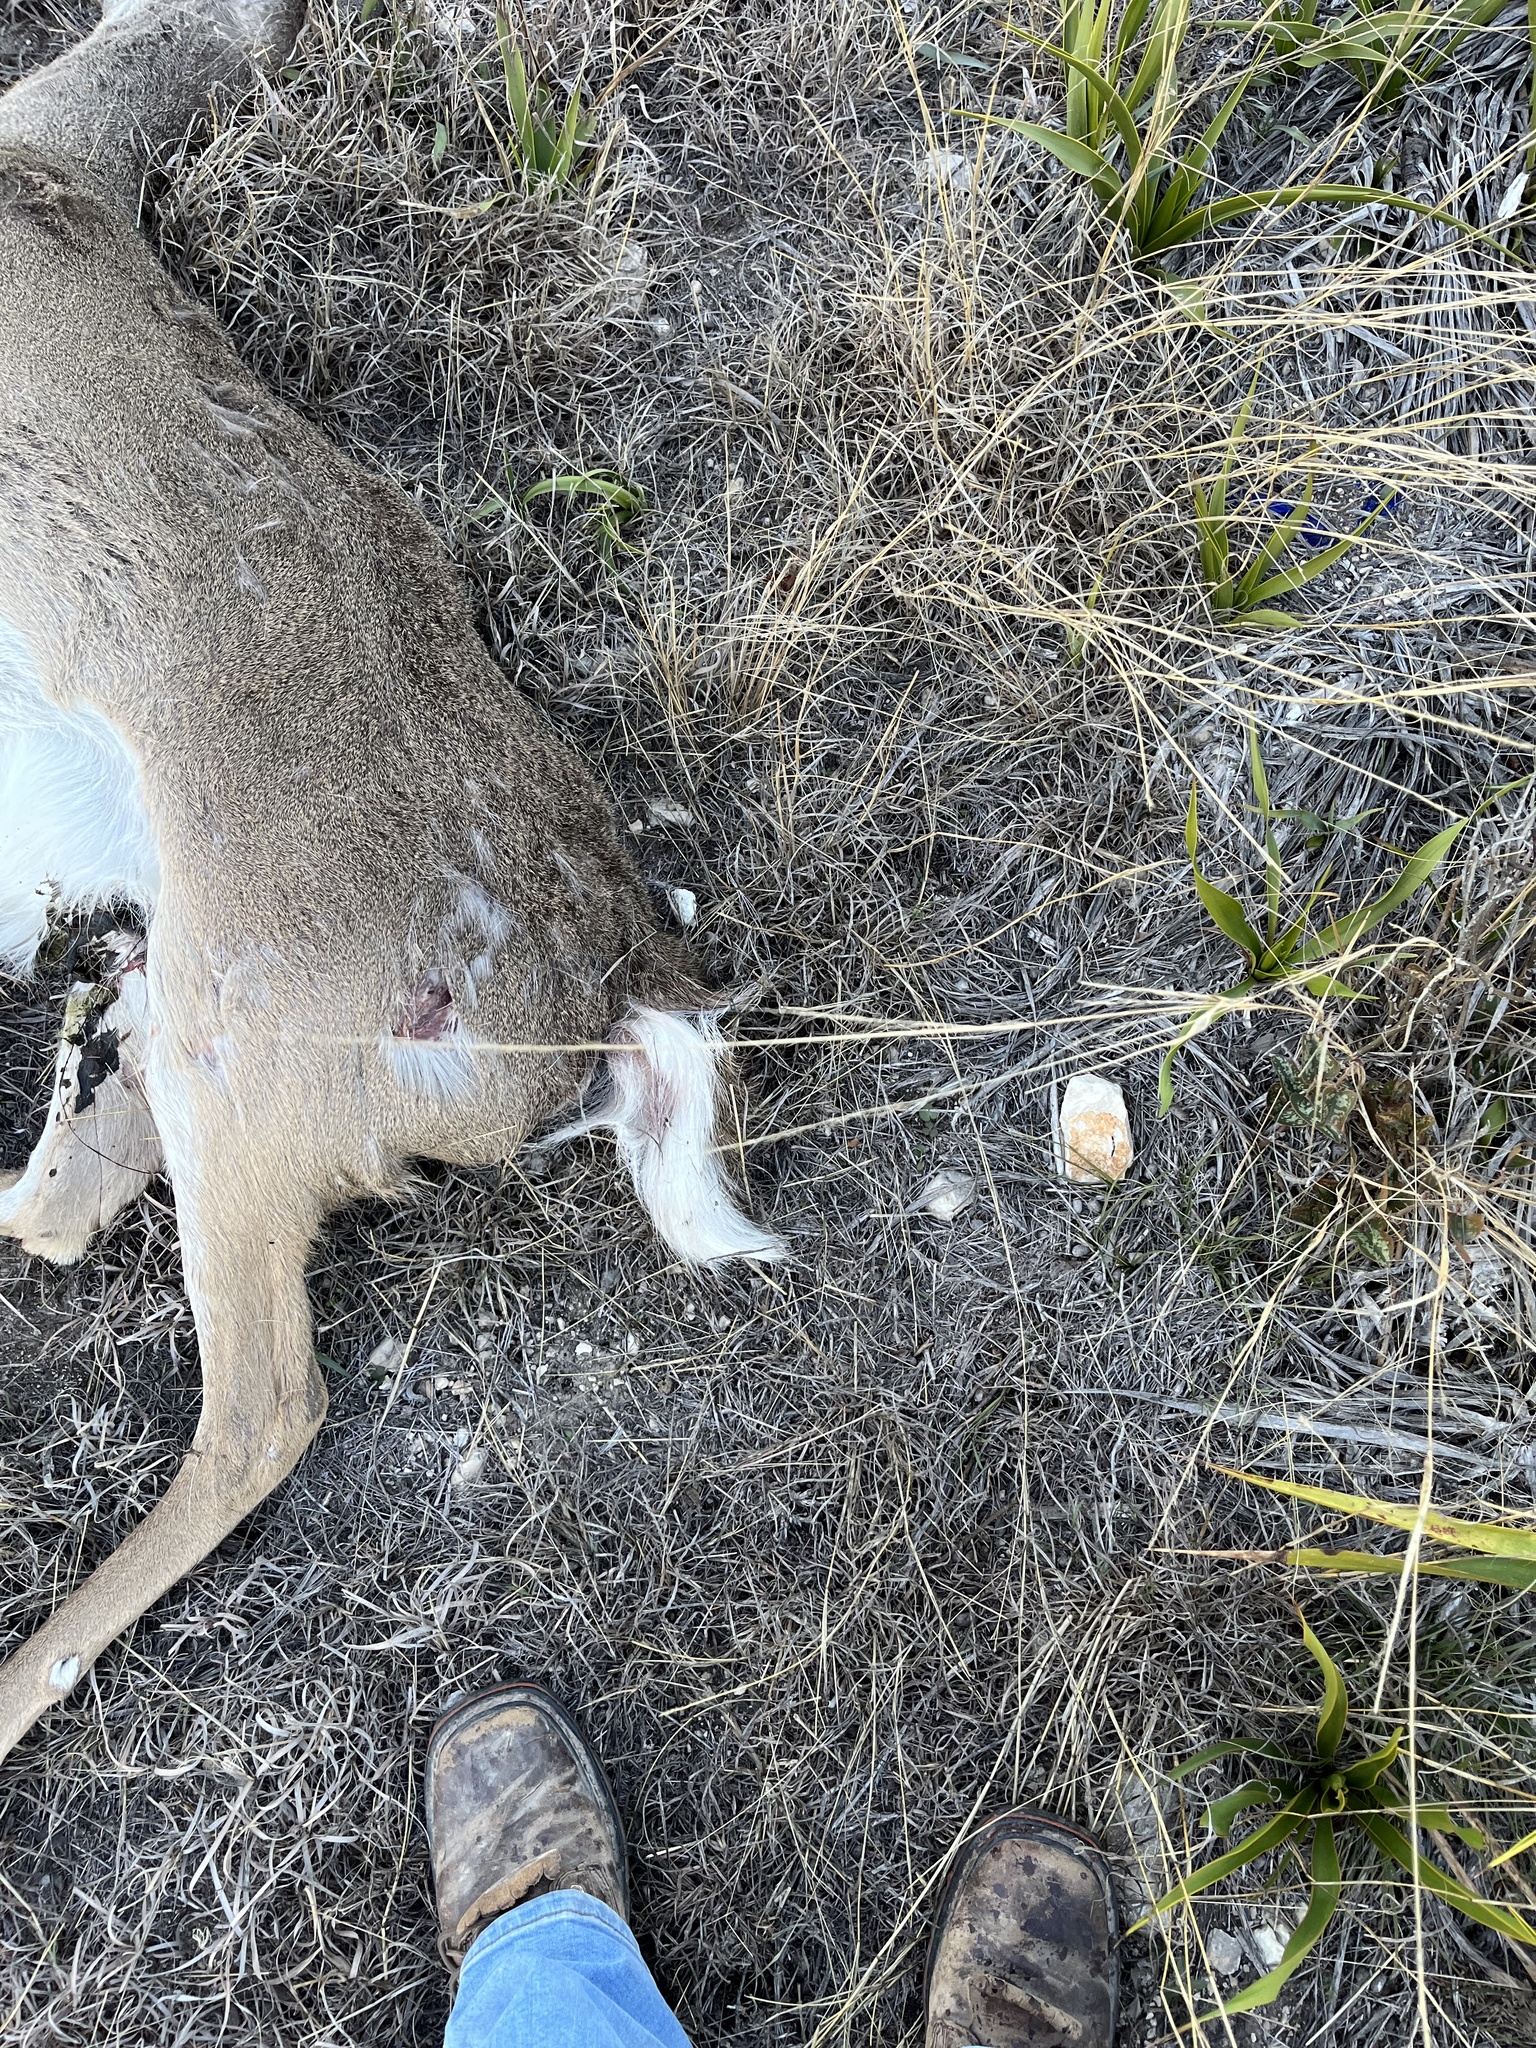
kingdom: Animalia
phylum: Chordata
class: Mammalia
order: Artiodactyla
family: Cervidae
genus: Odocoileus
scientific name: Odocoileus virginianus
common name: White-tailed deer
